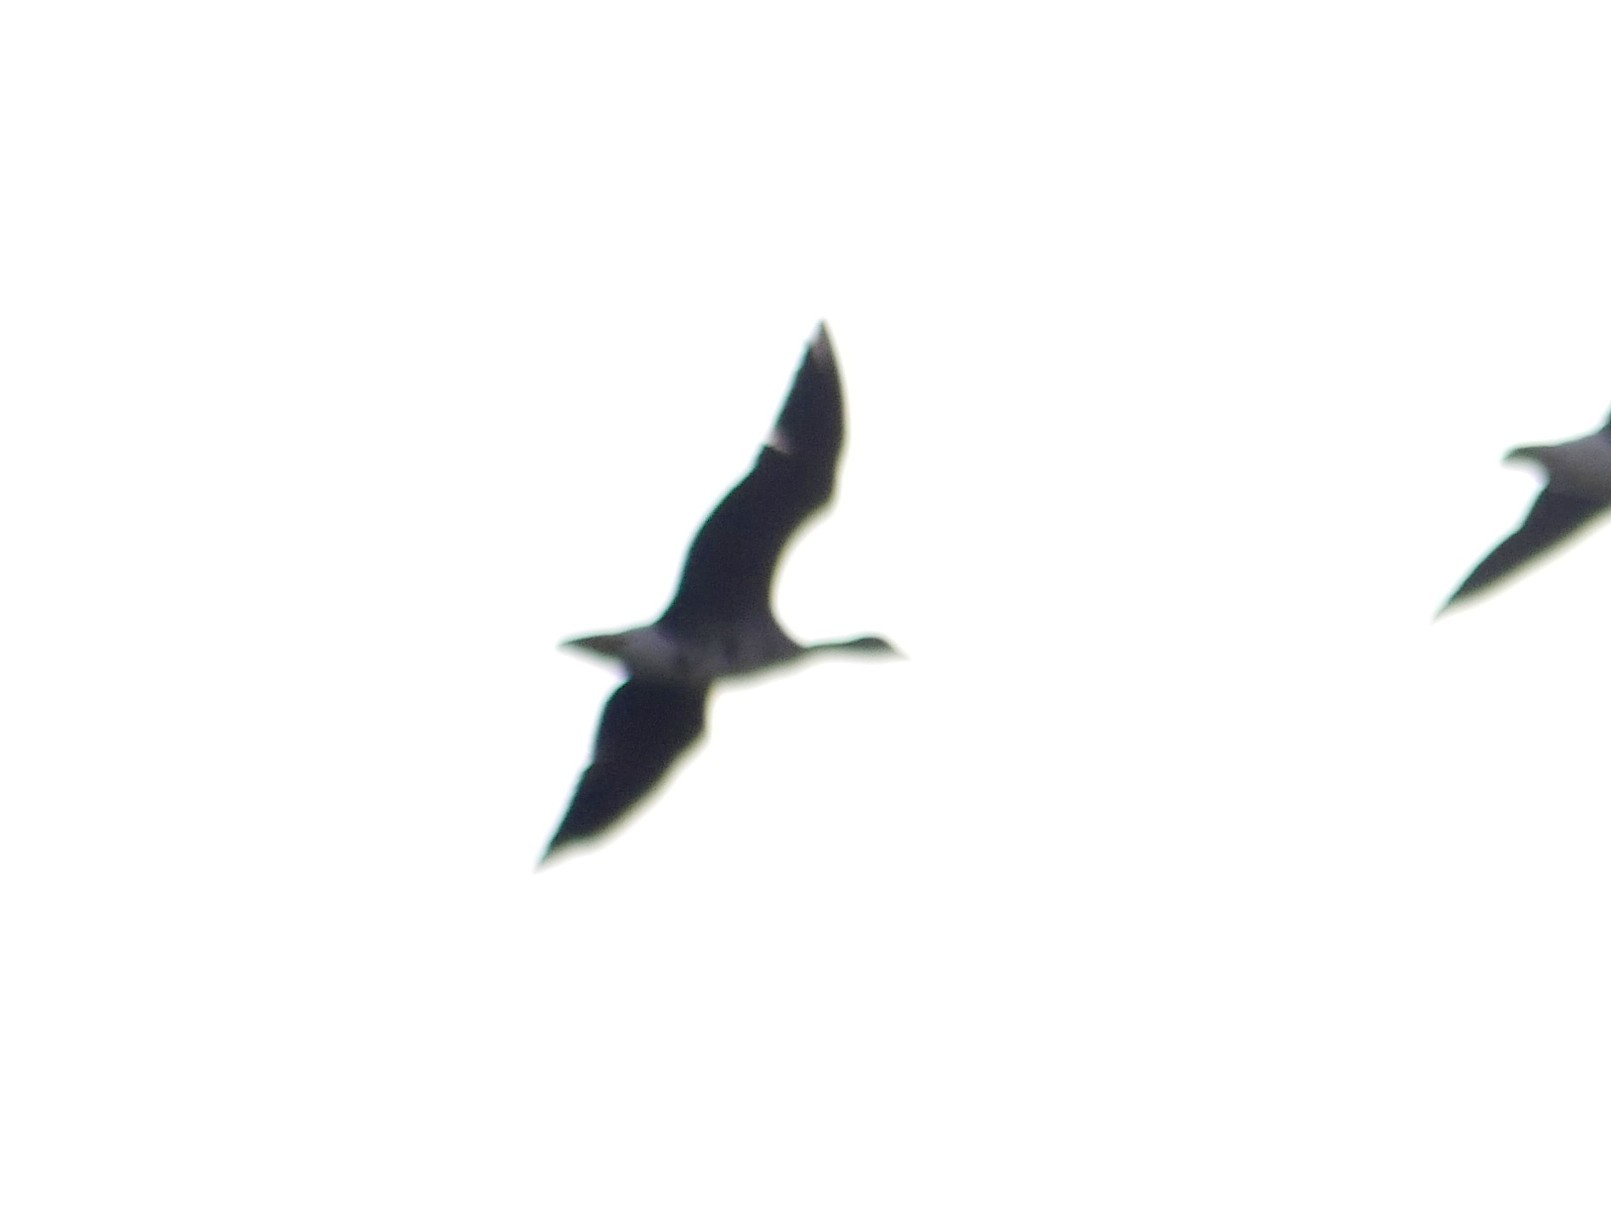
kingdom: Animalia
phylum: Chordata
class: Aves
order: Anseriformes
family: Anatidae
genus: Anser
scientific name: Anser albifrons
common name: Greater white-fronted goose
